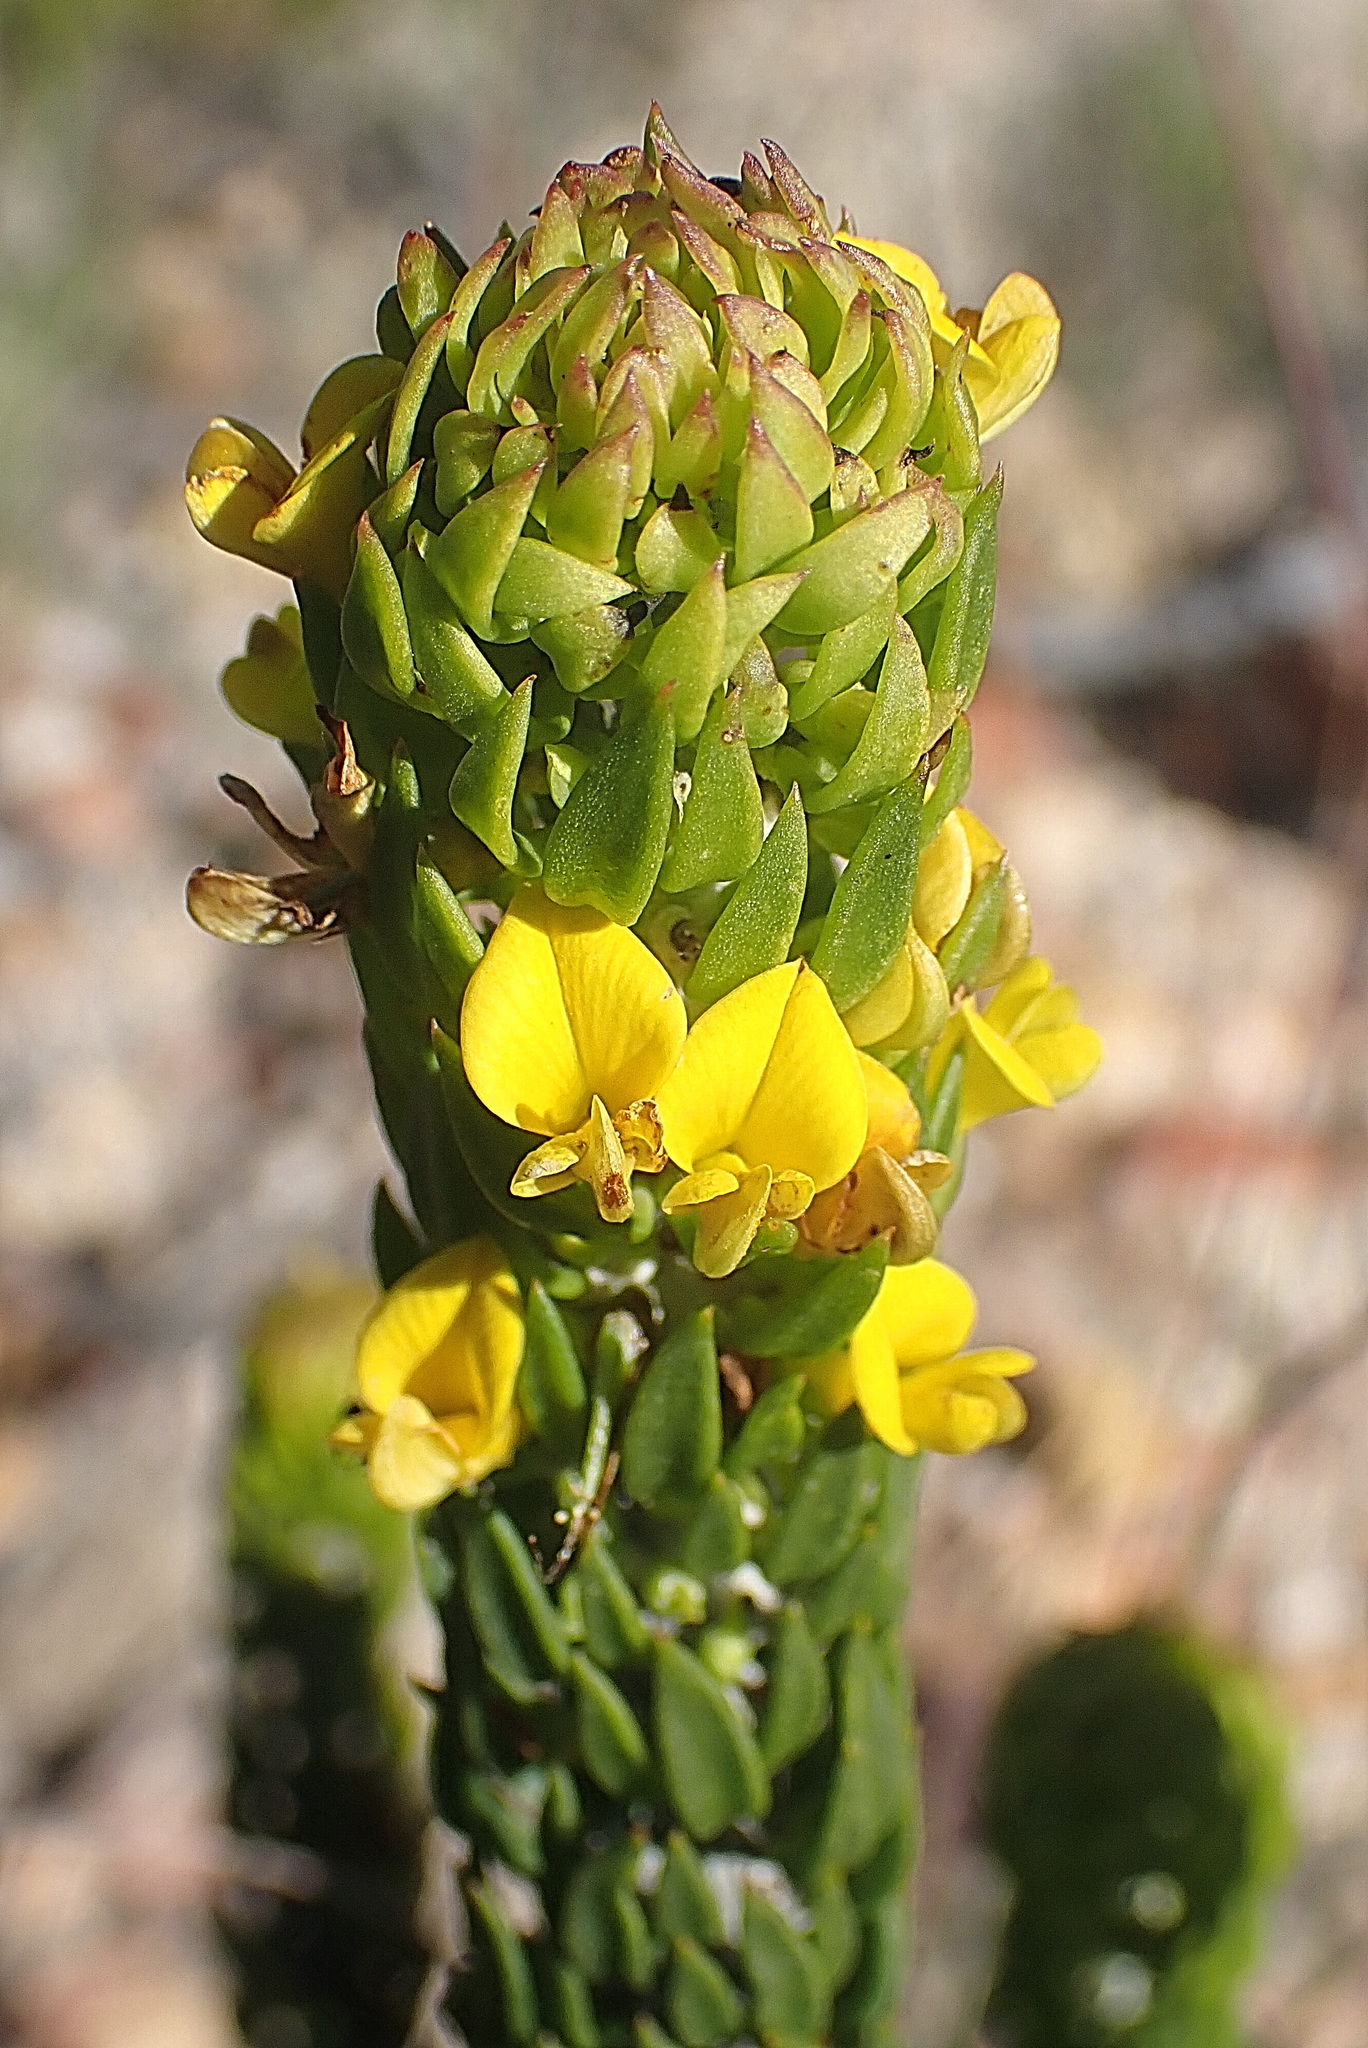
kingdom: Plantae
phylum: Tracheophyta
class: Magnoliopsida
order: Fabales
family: Fabaceae
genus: Aspalathus
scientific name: Aspalathus mundiana
